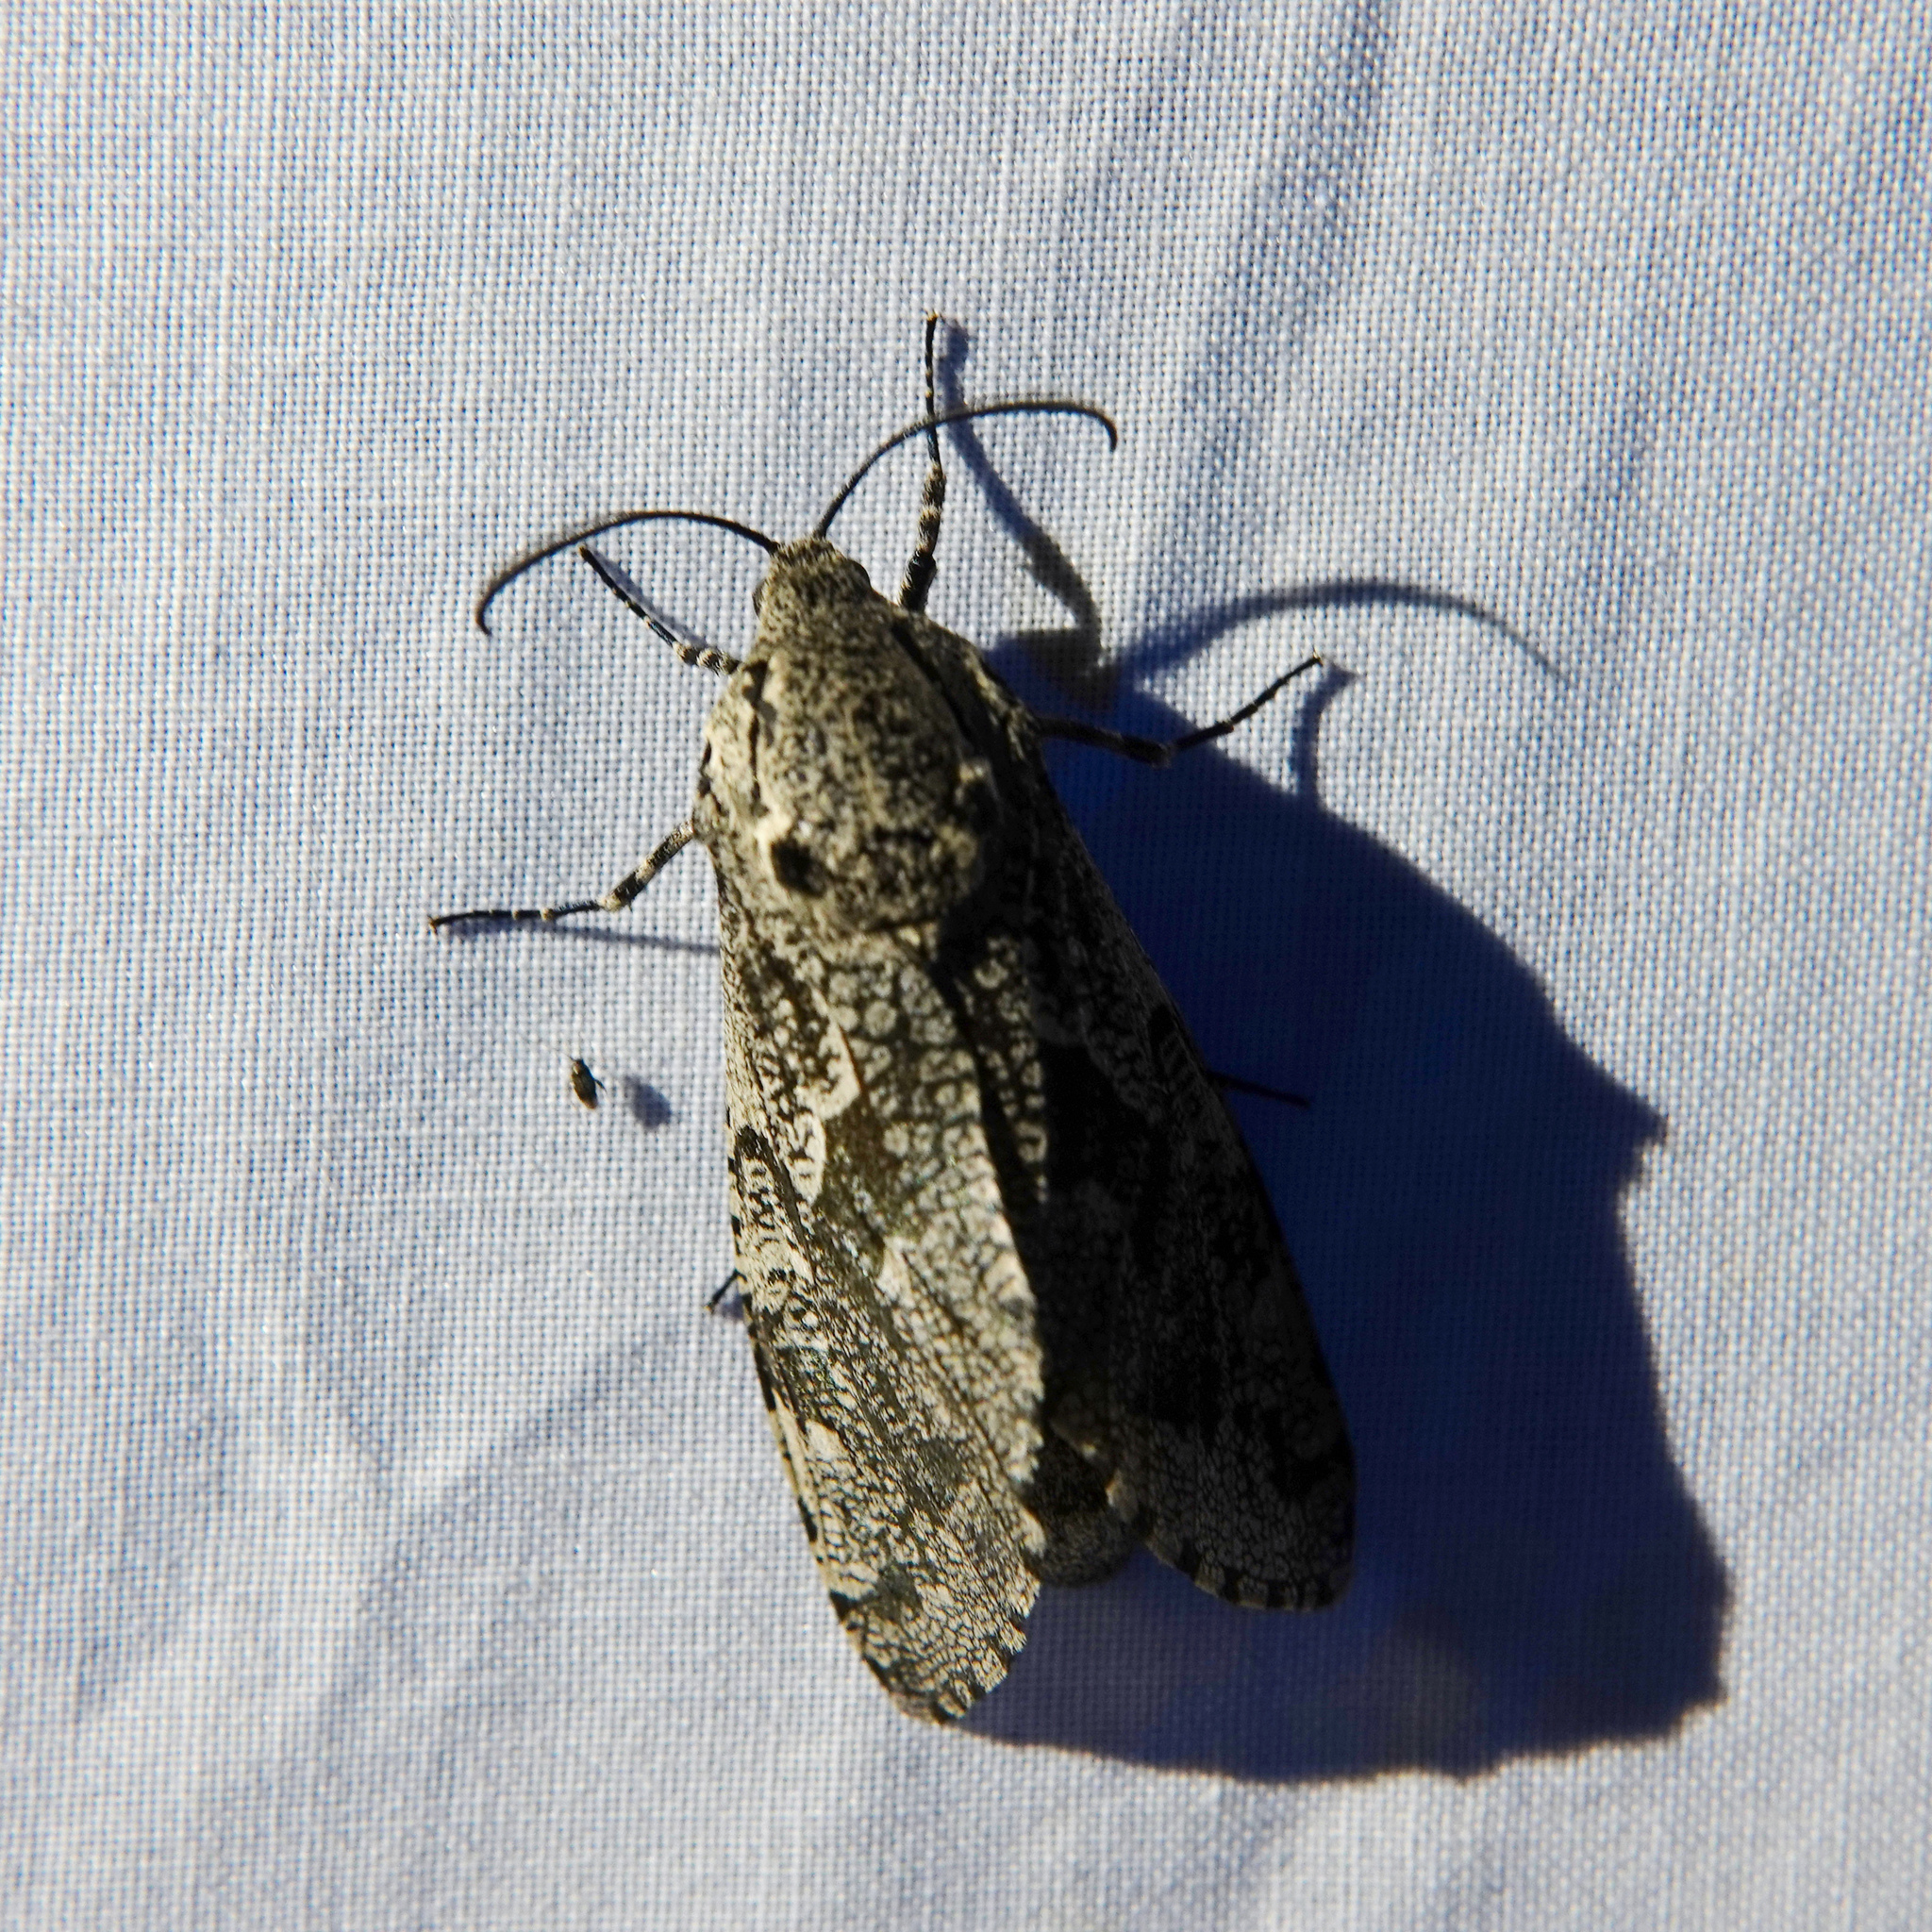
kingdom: Animalia
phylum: Arthropoda
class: Insecta
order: Lepidoptera
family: Cossidae
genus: Prionoxystus
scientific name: Prionoxystus robiniae
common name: Carpenterworm
